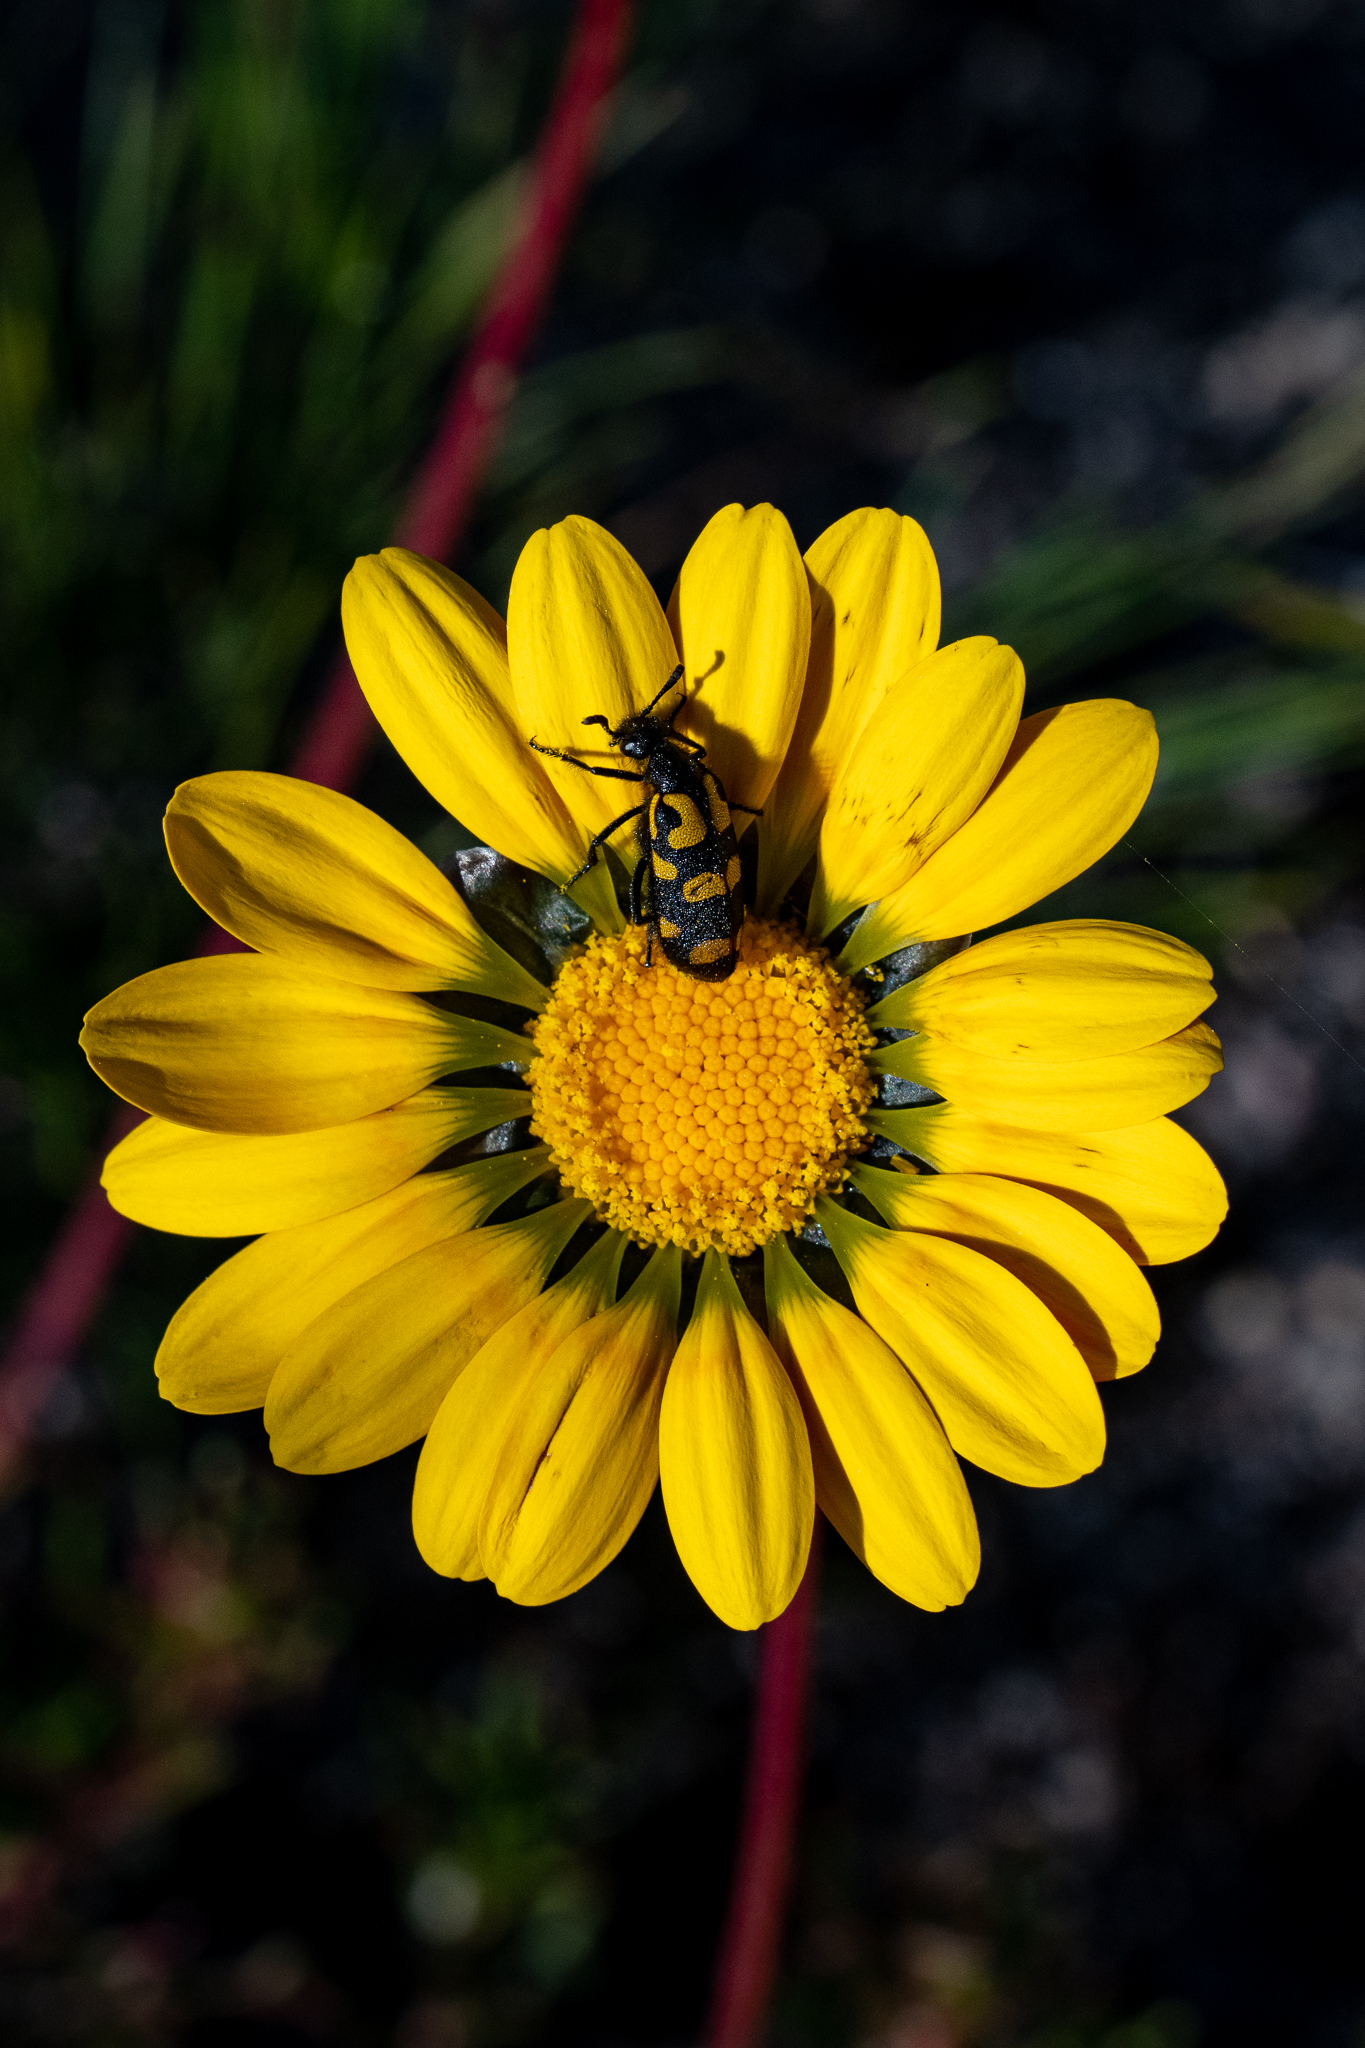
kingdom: Animalia
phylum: Arthropoda
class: Insecta
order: Coleoptera
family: Meloidae
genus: Ceroctis
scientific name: Ceroctis capensis
